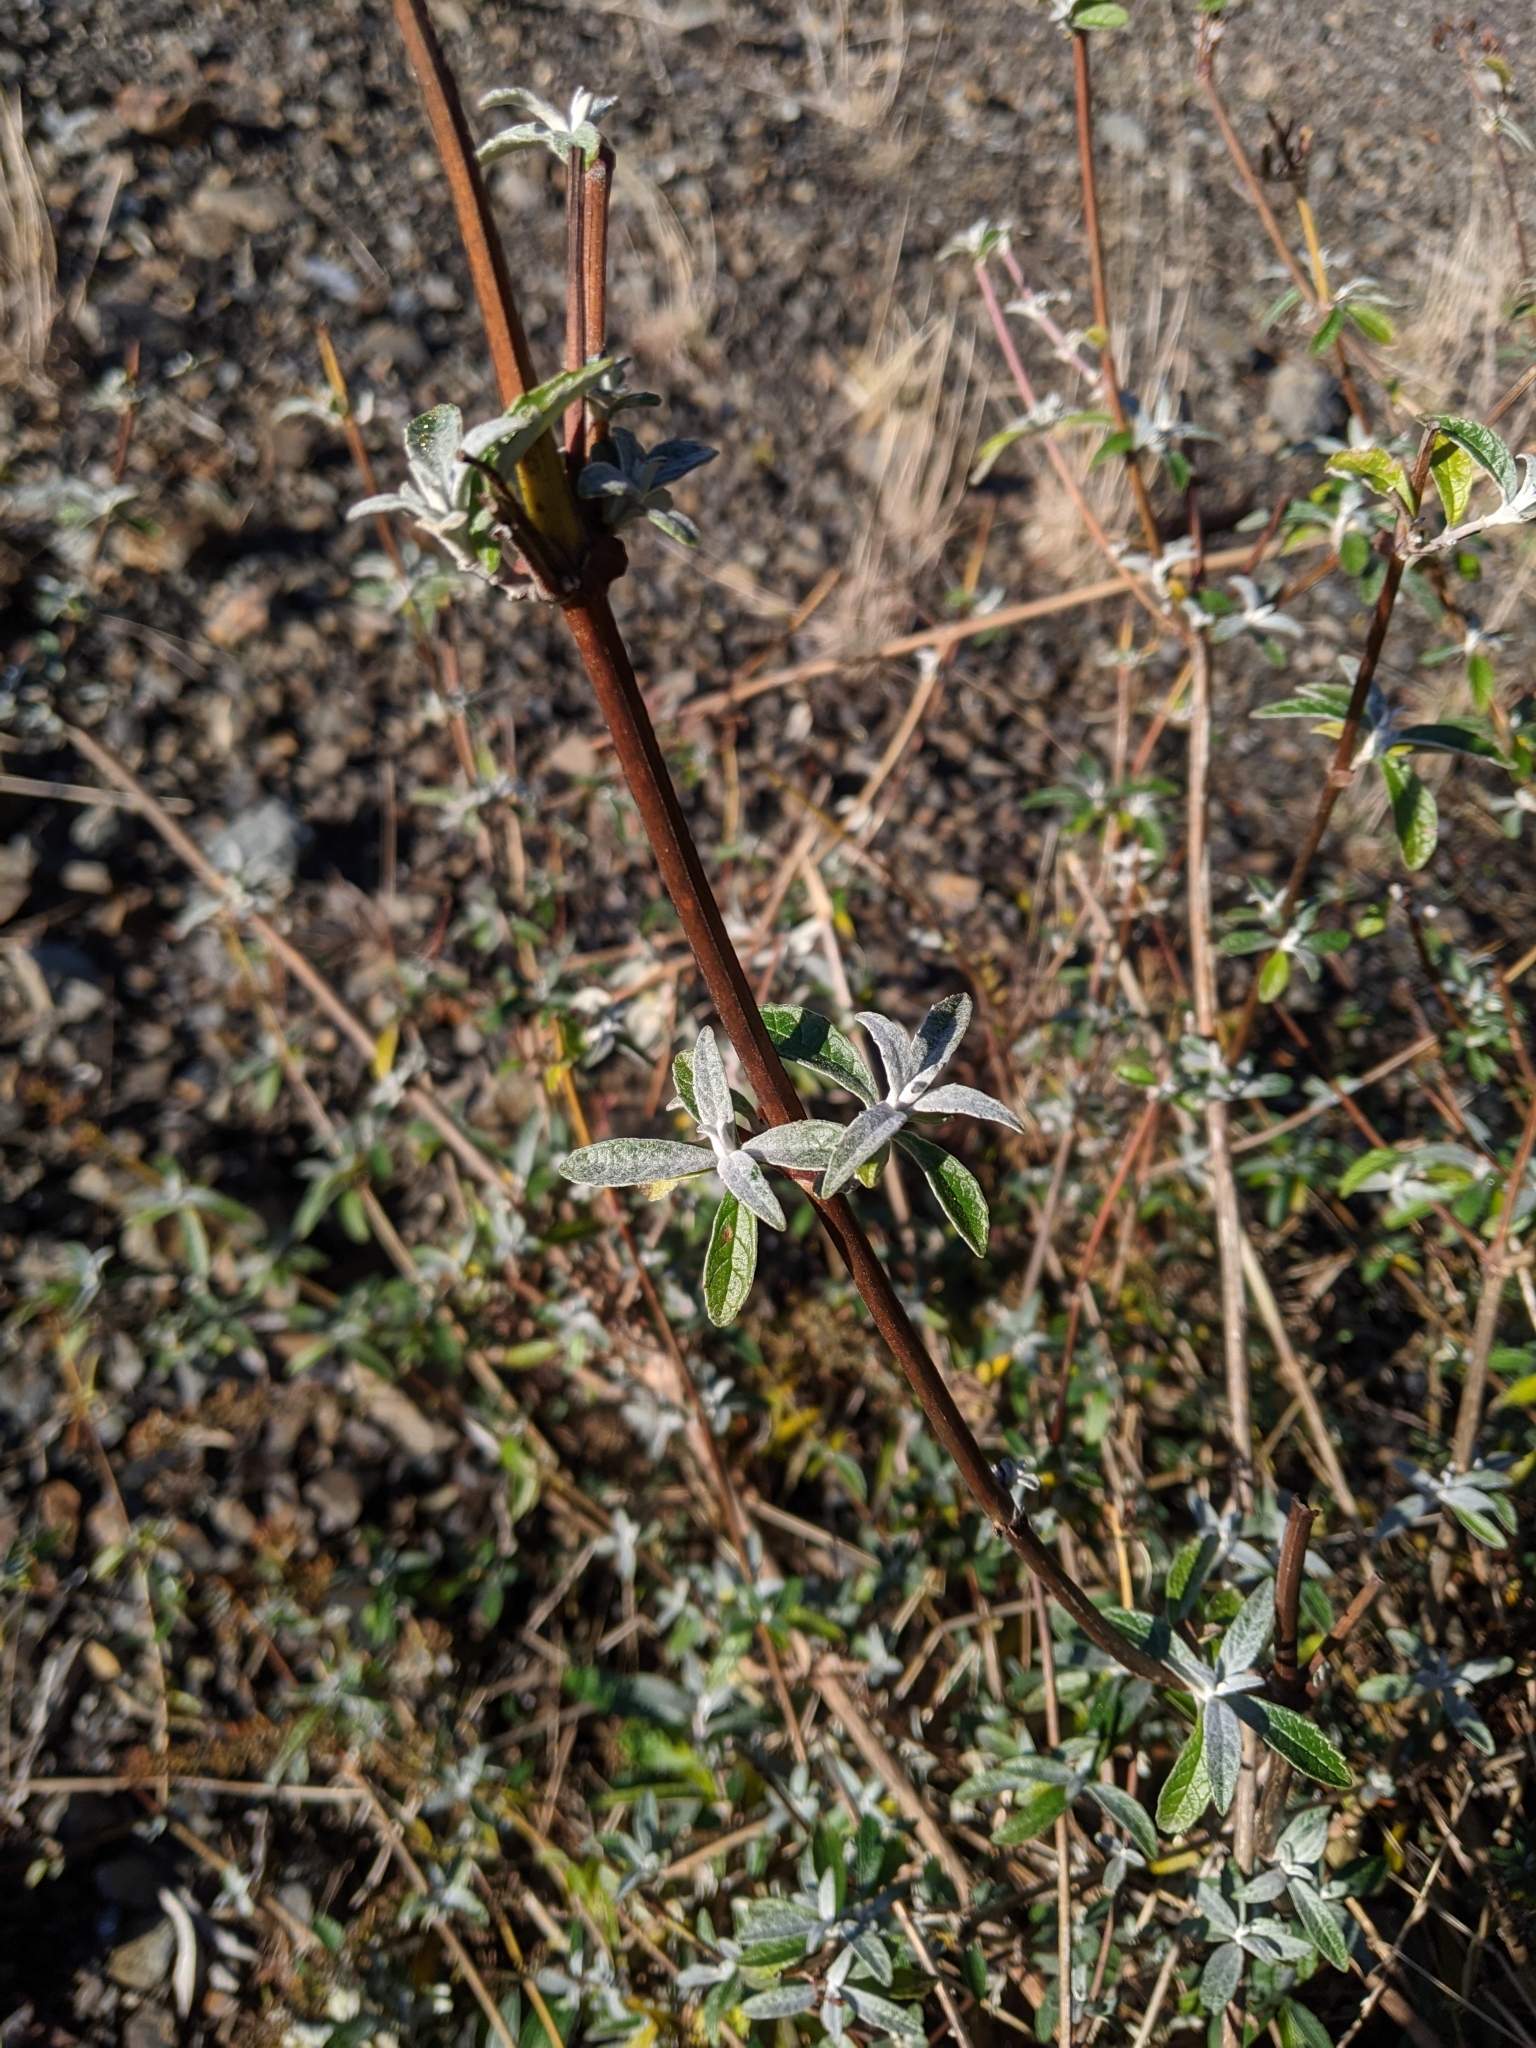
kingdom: Plantae
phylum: Tracheophyta
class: Magnoliopsida
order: Lamiales
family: Scrophulariaceae
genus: Buddleja
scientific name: Buddleja davidii
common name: Butterfly-bush
